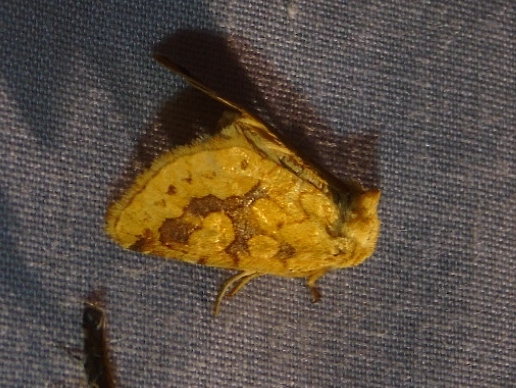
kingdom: Animalia
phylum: Arthropoda
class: Insecta
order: Lepidoptera
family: Noctuidae
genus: Nocloa
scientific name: Nocloa ezeha
